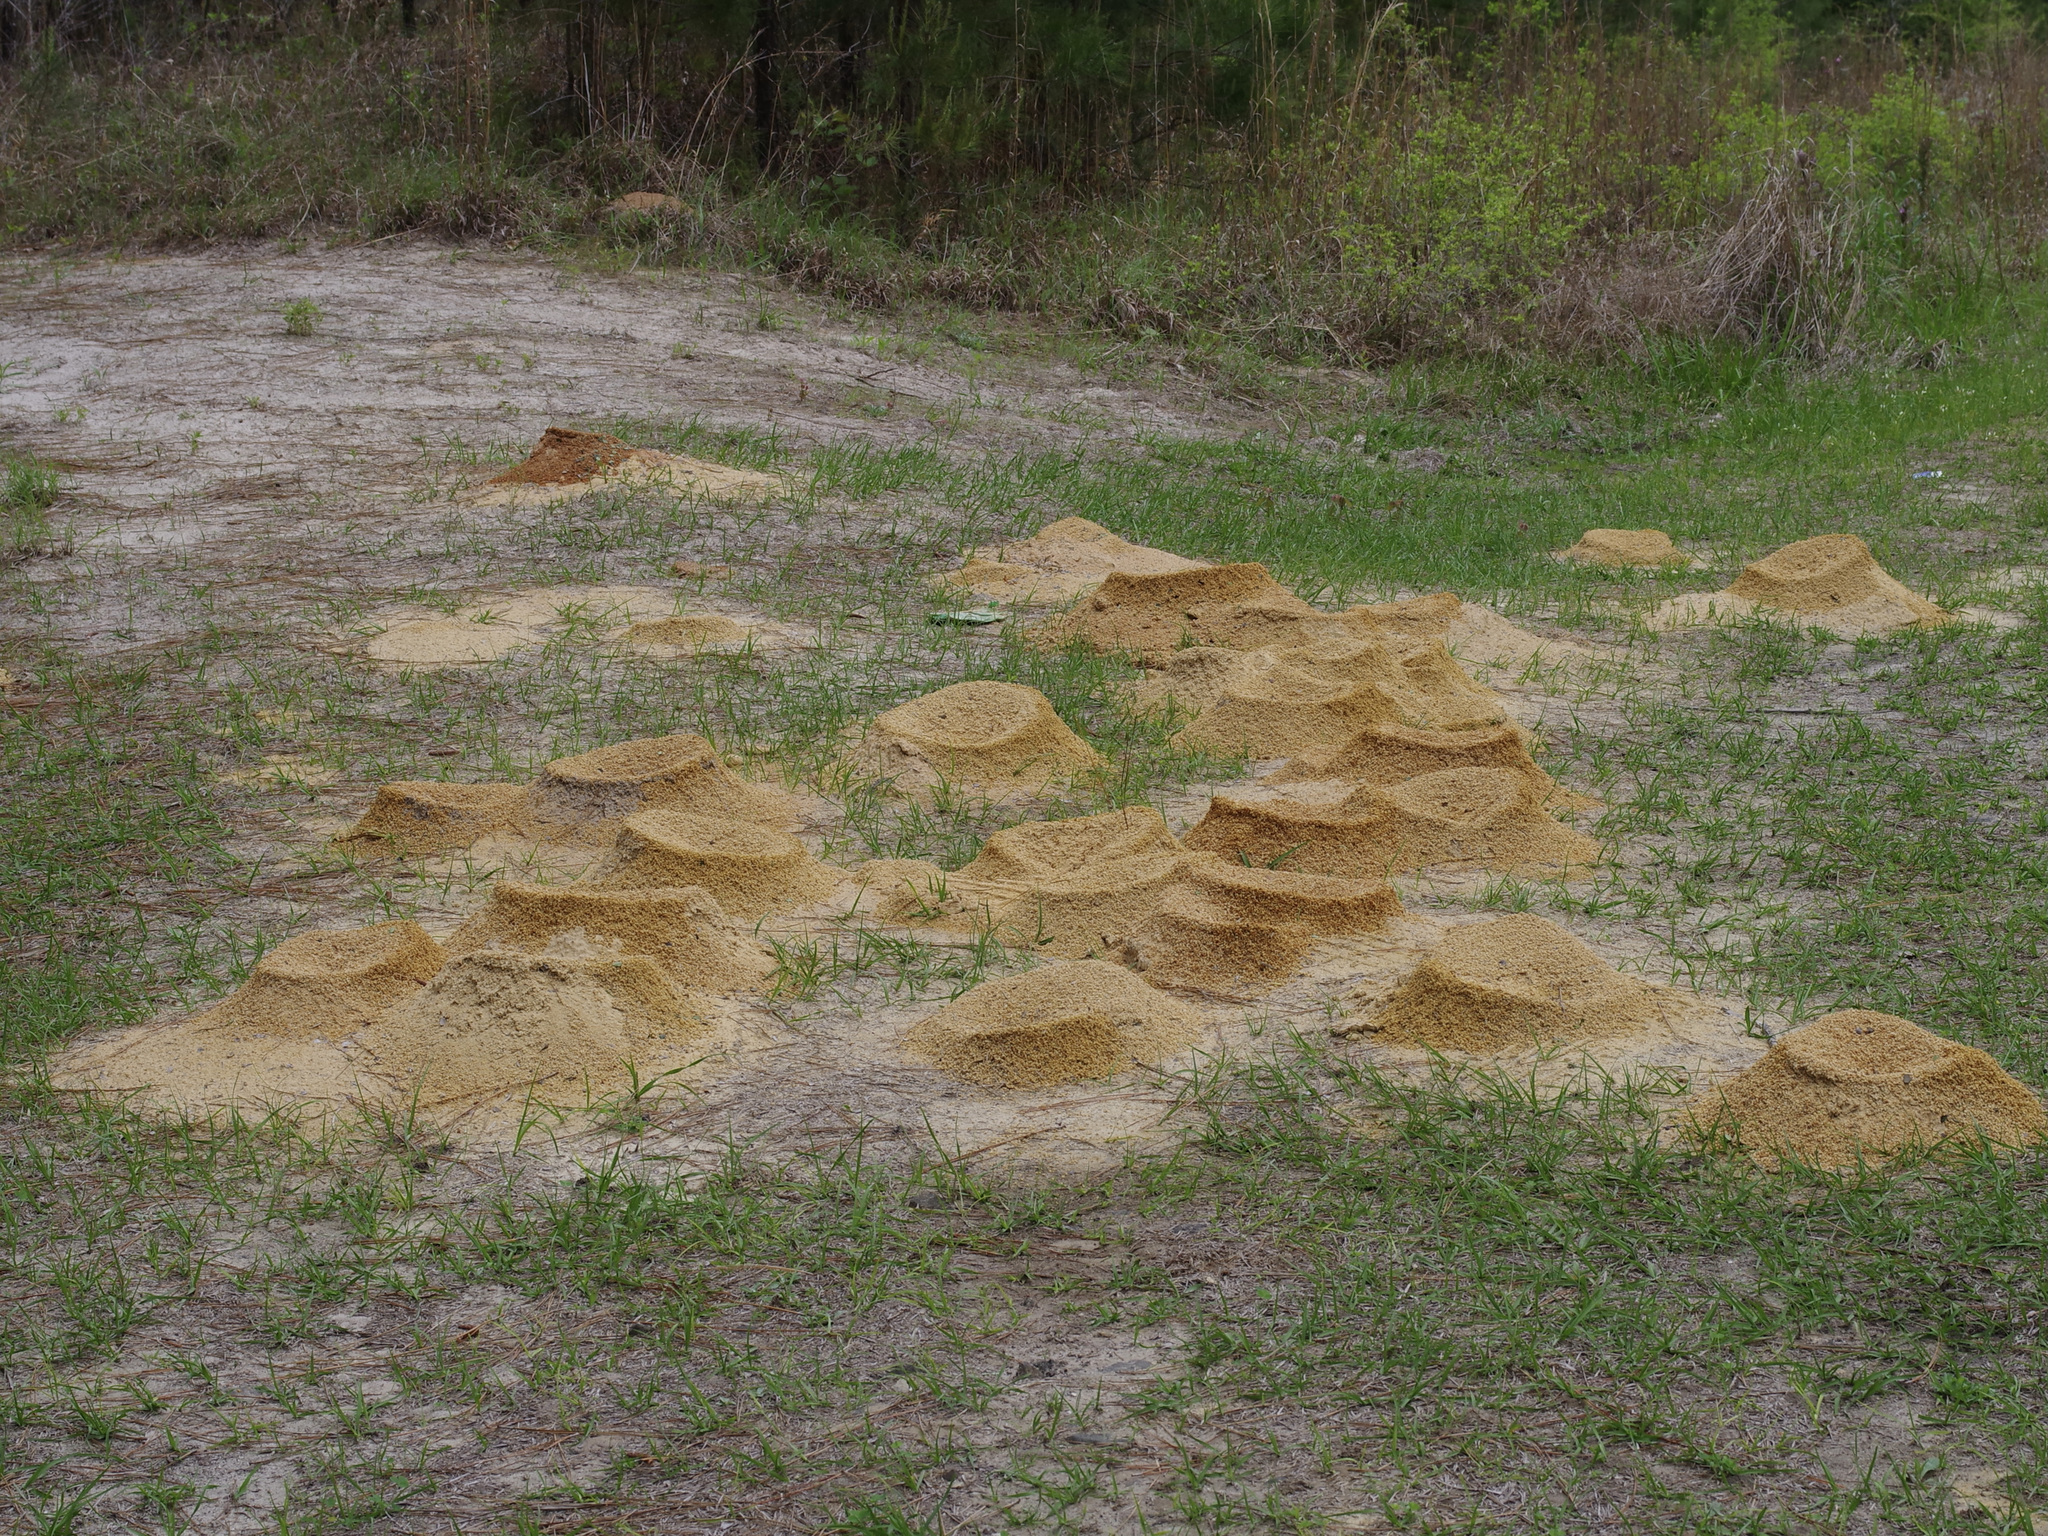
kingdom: Animalia
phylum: Arthropoda
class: Insecta
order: Hymenoptera
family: Formicidae
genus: Atta
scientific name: Atta texana
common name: Texas leafcutting ant
